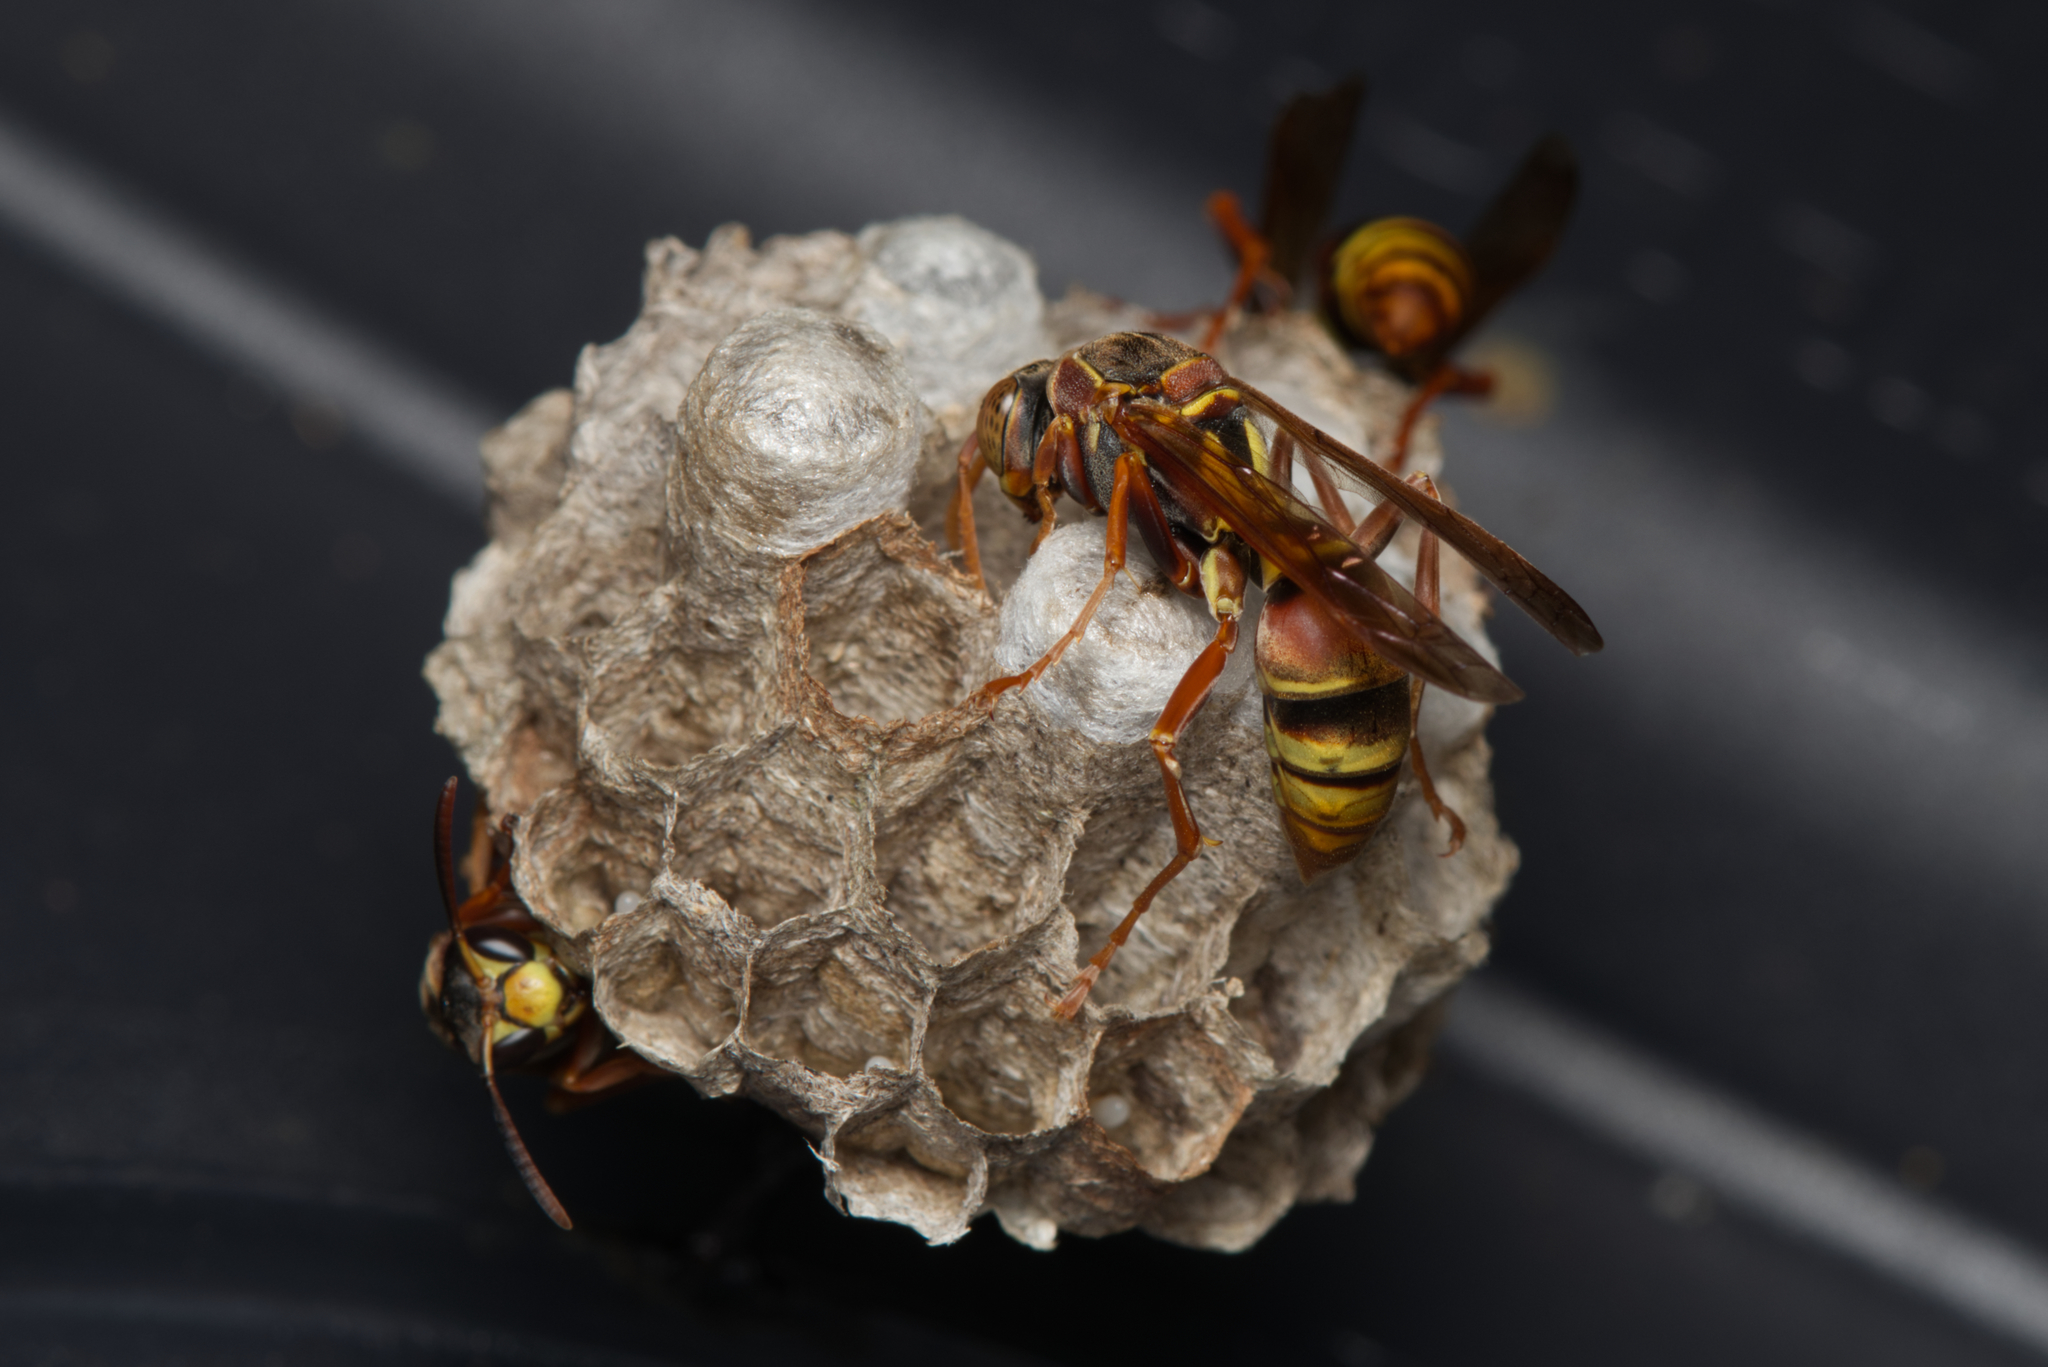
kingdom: Animalia
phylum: Arthropoda
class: Insecta
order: Hymenoptera
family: Eumenidae
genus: Polistes
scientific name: Polistes humilis
